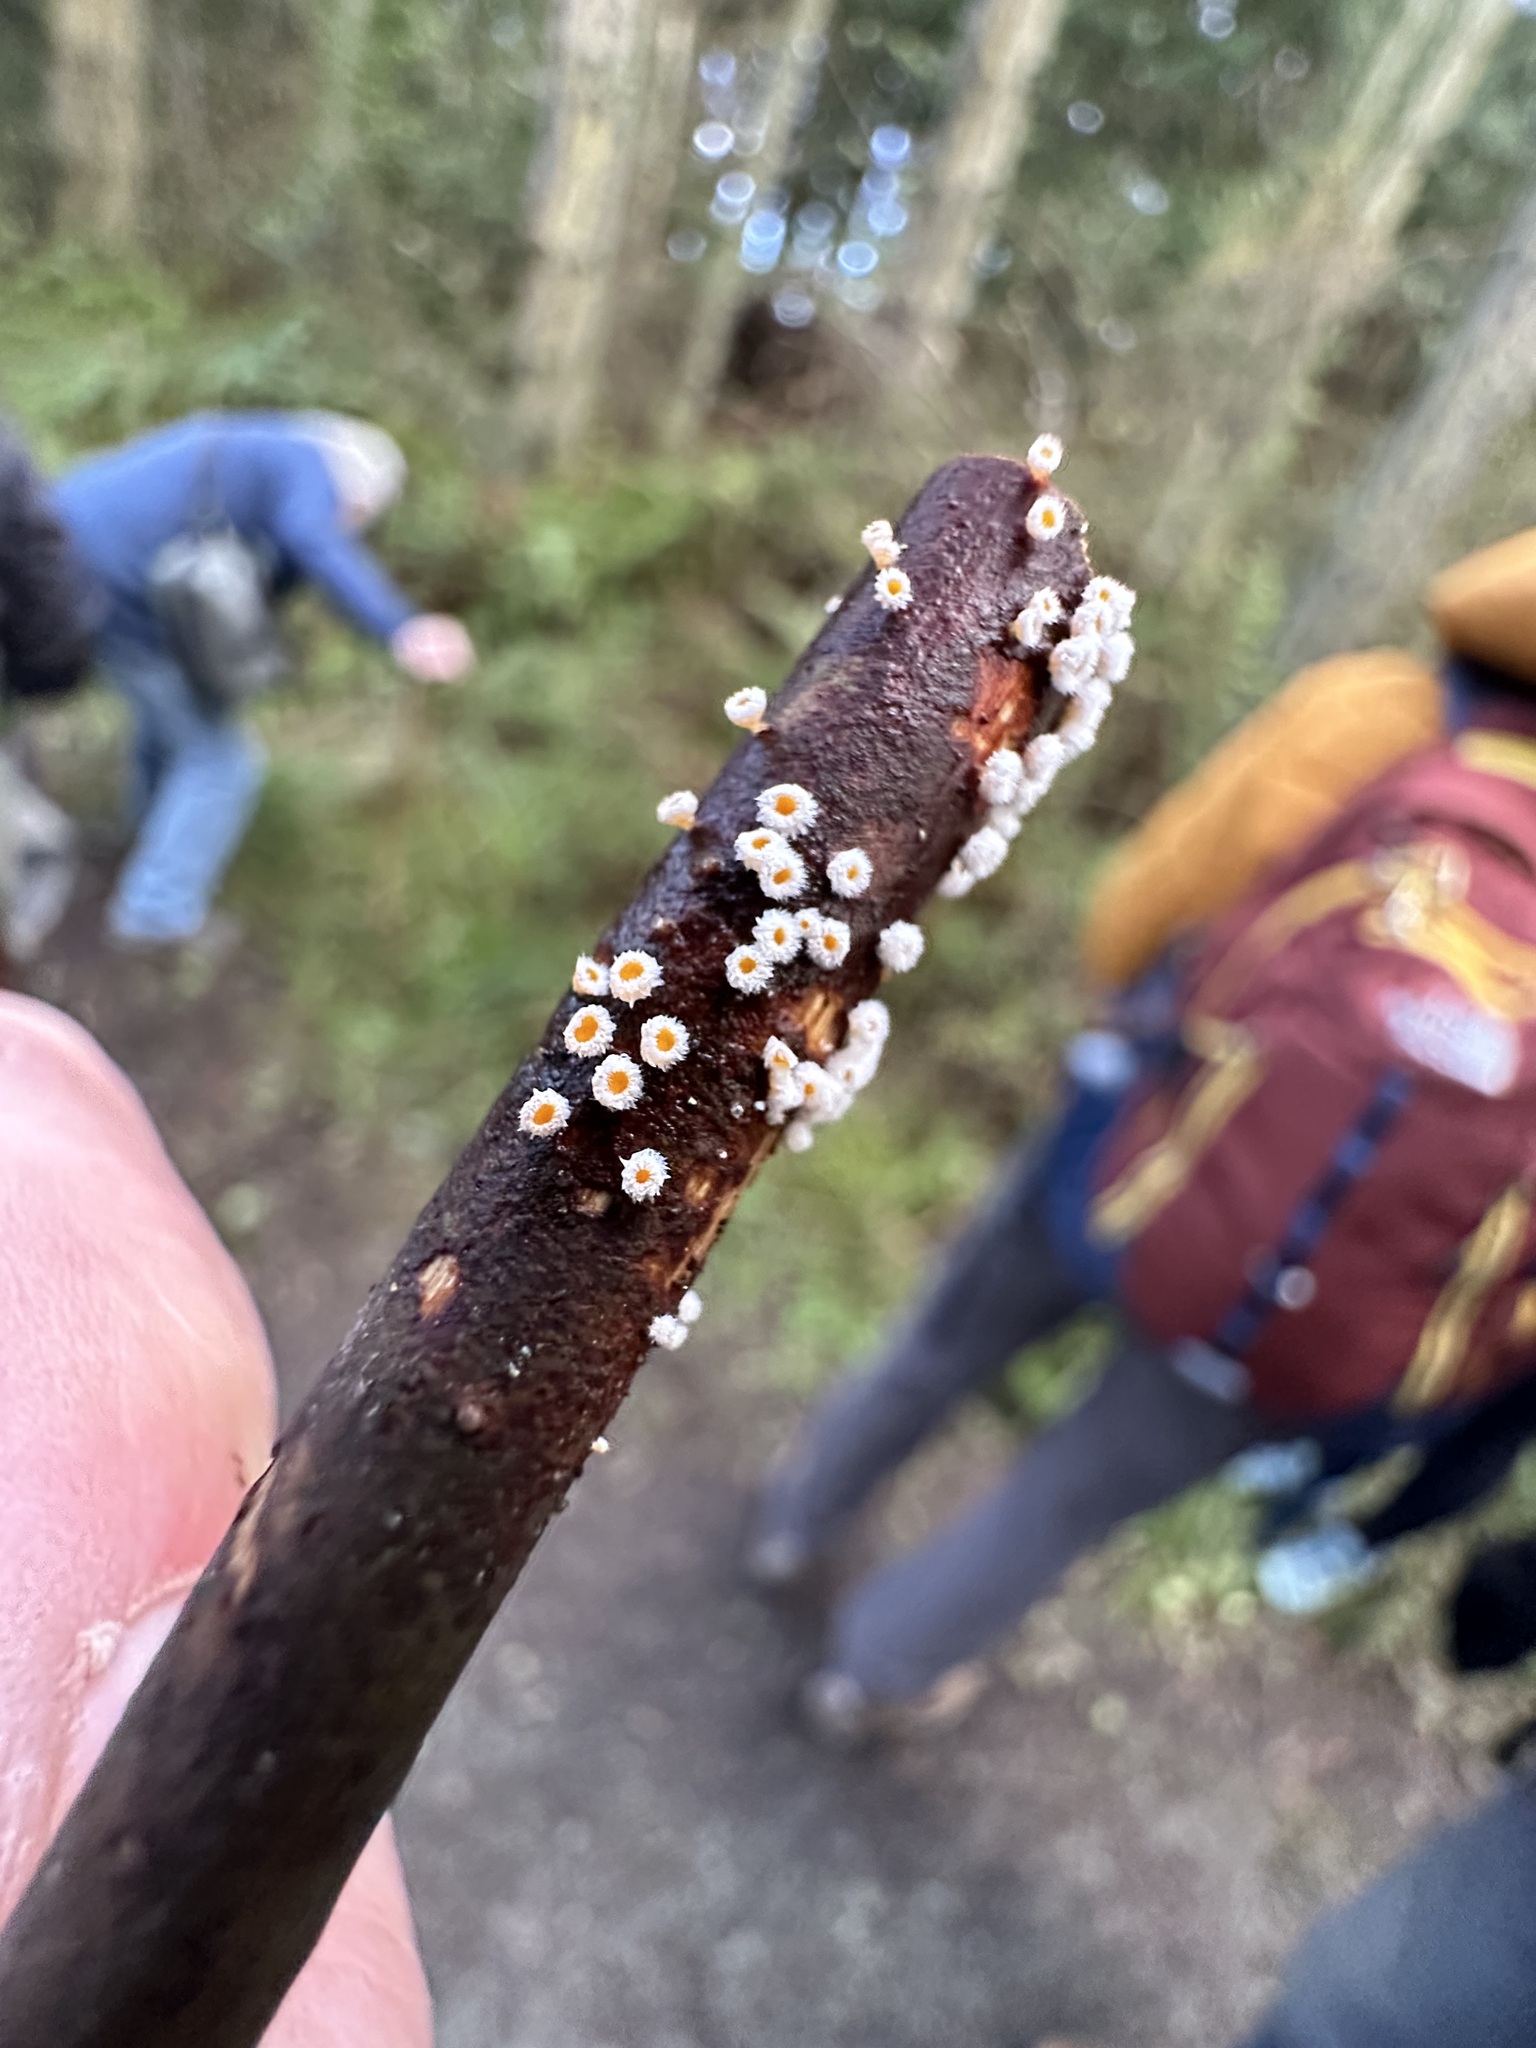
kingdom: Fungi
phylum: Ascomycota
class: Leotiomycetes
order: Helotiales
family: Lachnaceae
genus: Capitotricha
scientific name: Capitotricha bicolor
